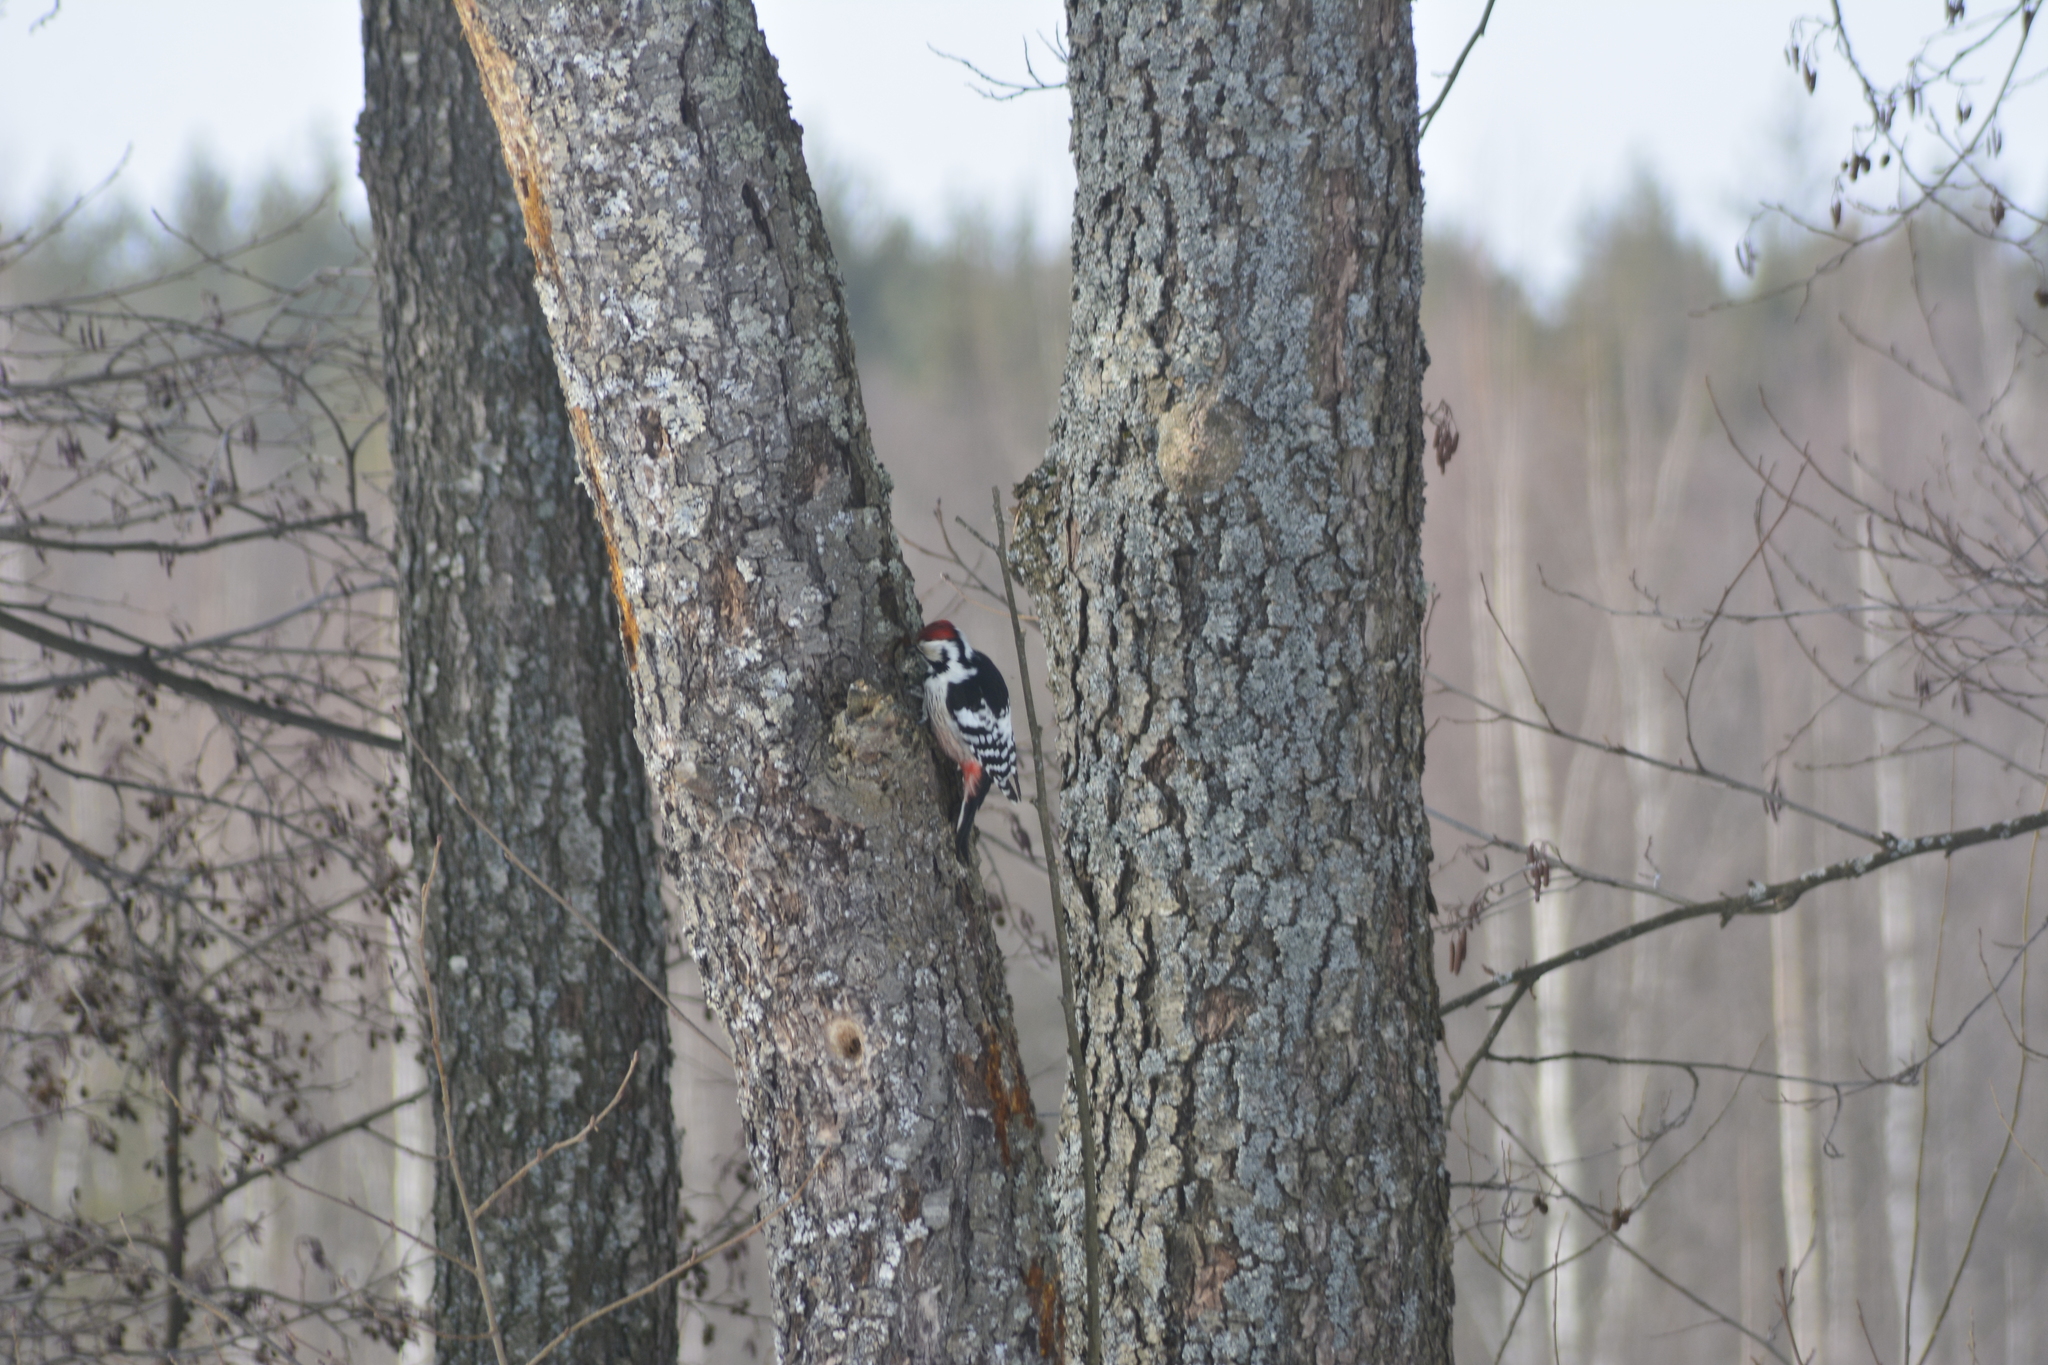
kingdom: Animalia
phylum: Chordata
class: Aves
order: Piciformes
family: Picidae
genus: Dendrocopos
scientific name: Dendrocopos leucotos
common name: White-backed woodpecker
